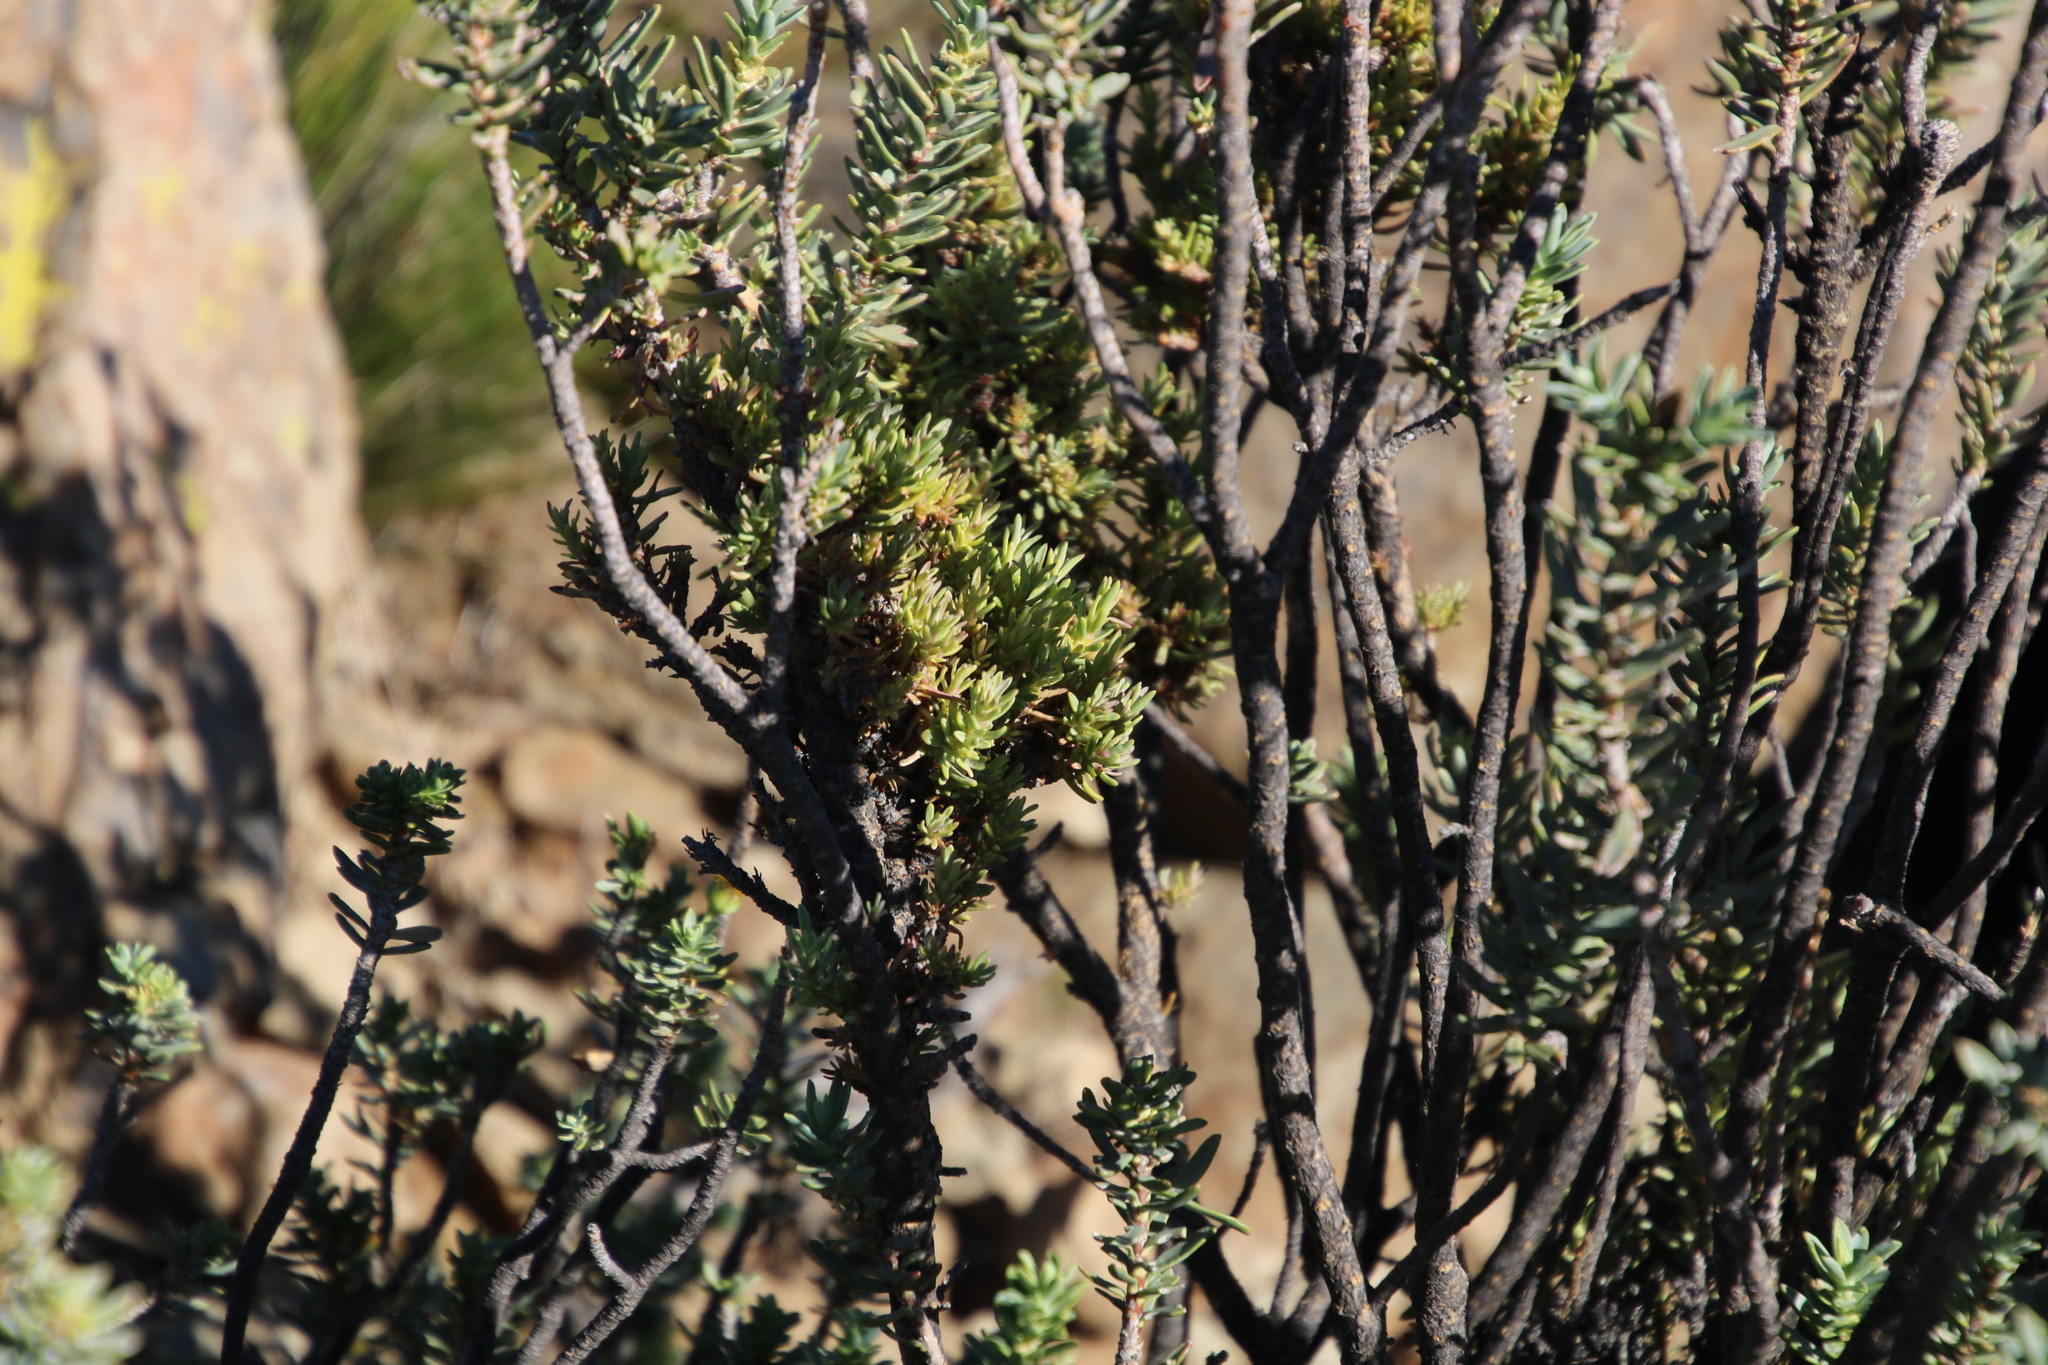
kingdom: Bacteria
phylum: Firmicutes
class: Bacilli
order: Acholeplasmatales
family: Acholeplasmataceae
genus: Phytoplasma
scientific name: Phytoplasma
